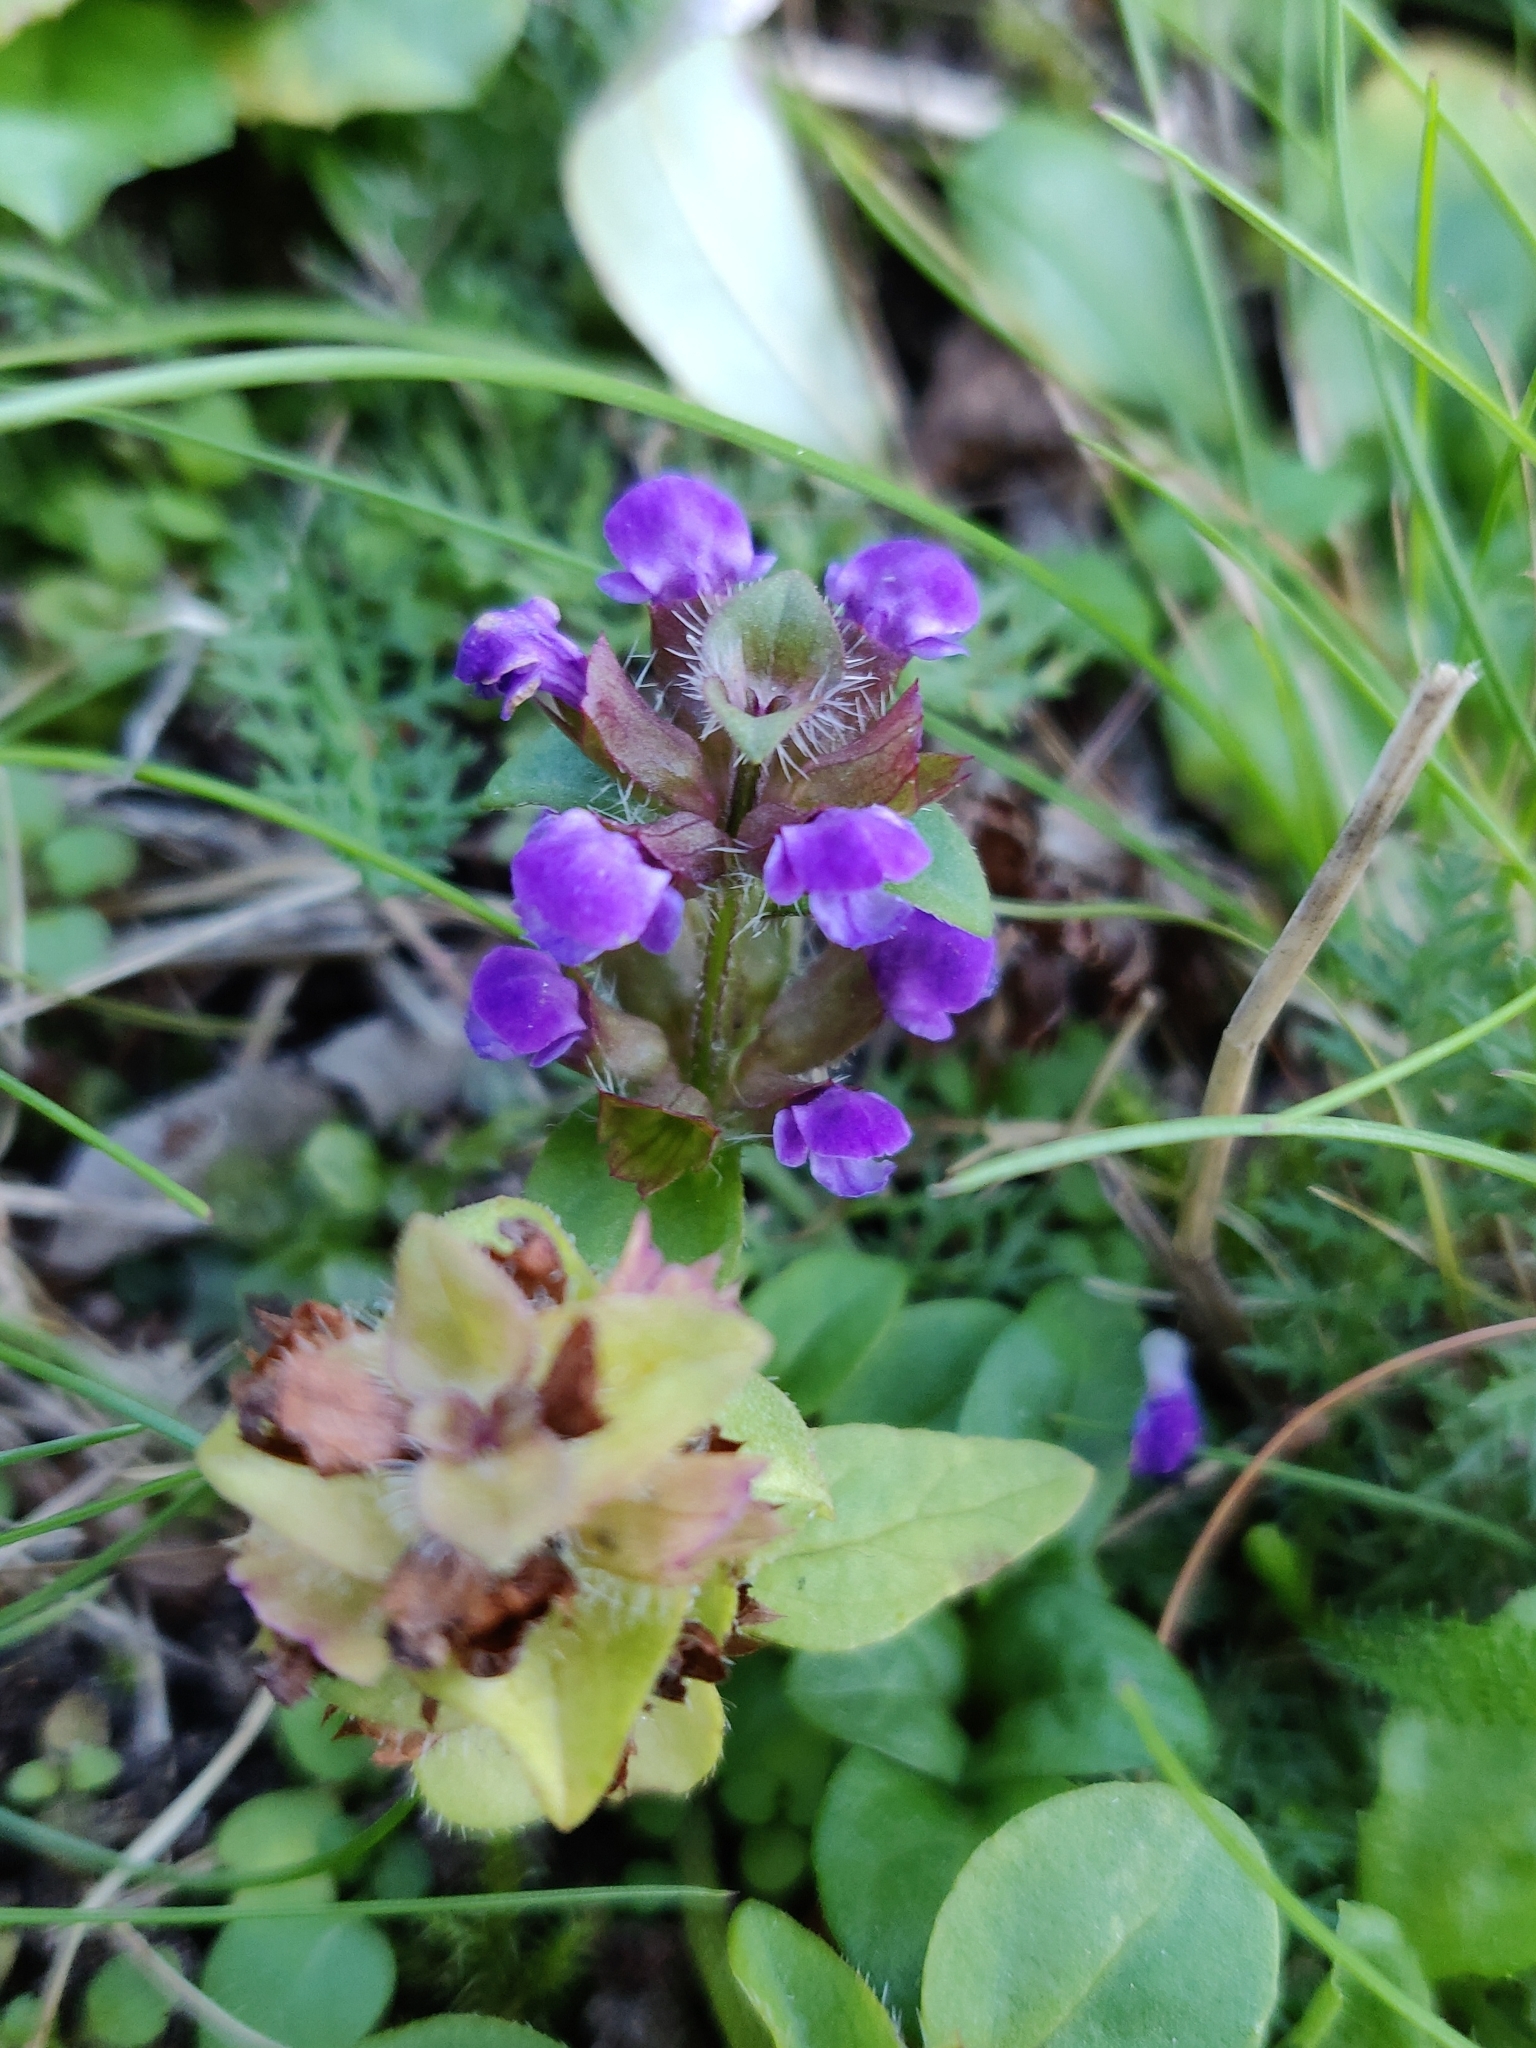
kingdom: Plantae
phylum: Tracheophyta
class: Magnoliopsida
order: Lamiales
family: Lamiaceae
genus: Prunella
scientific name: Prunella vulgaris
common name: Heal-all
